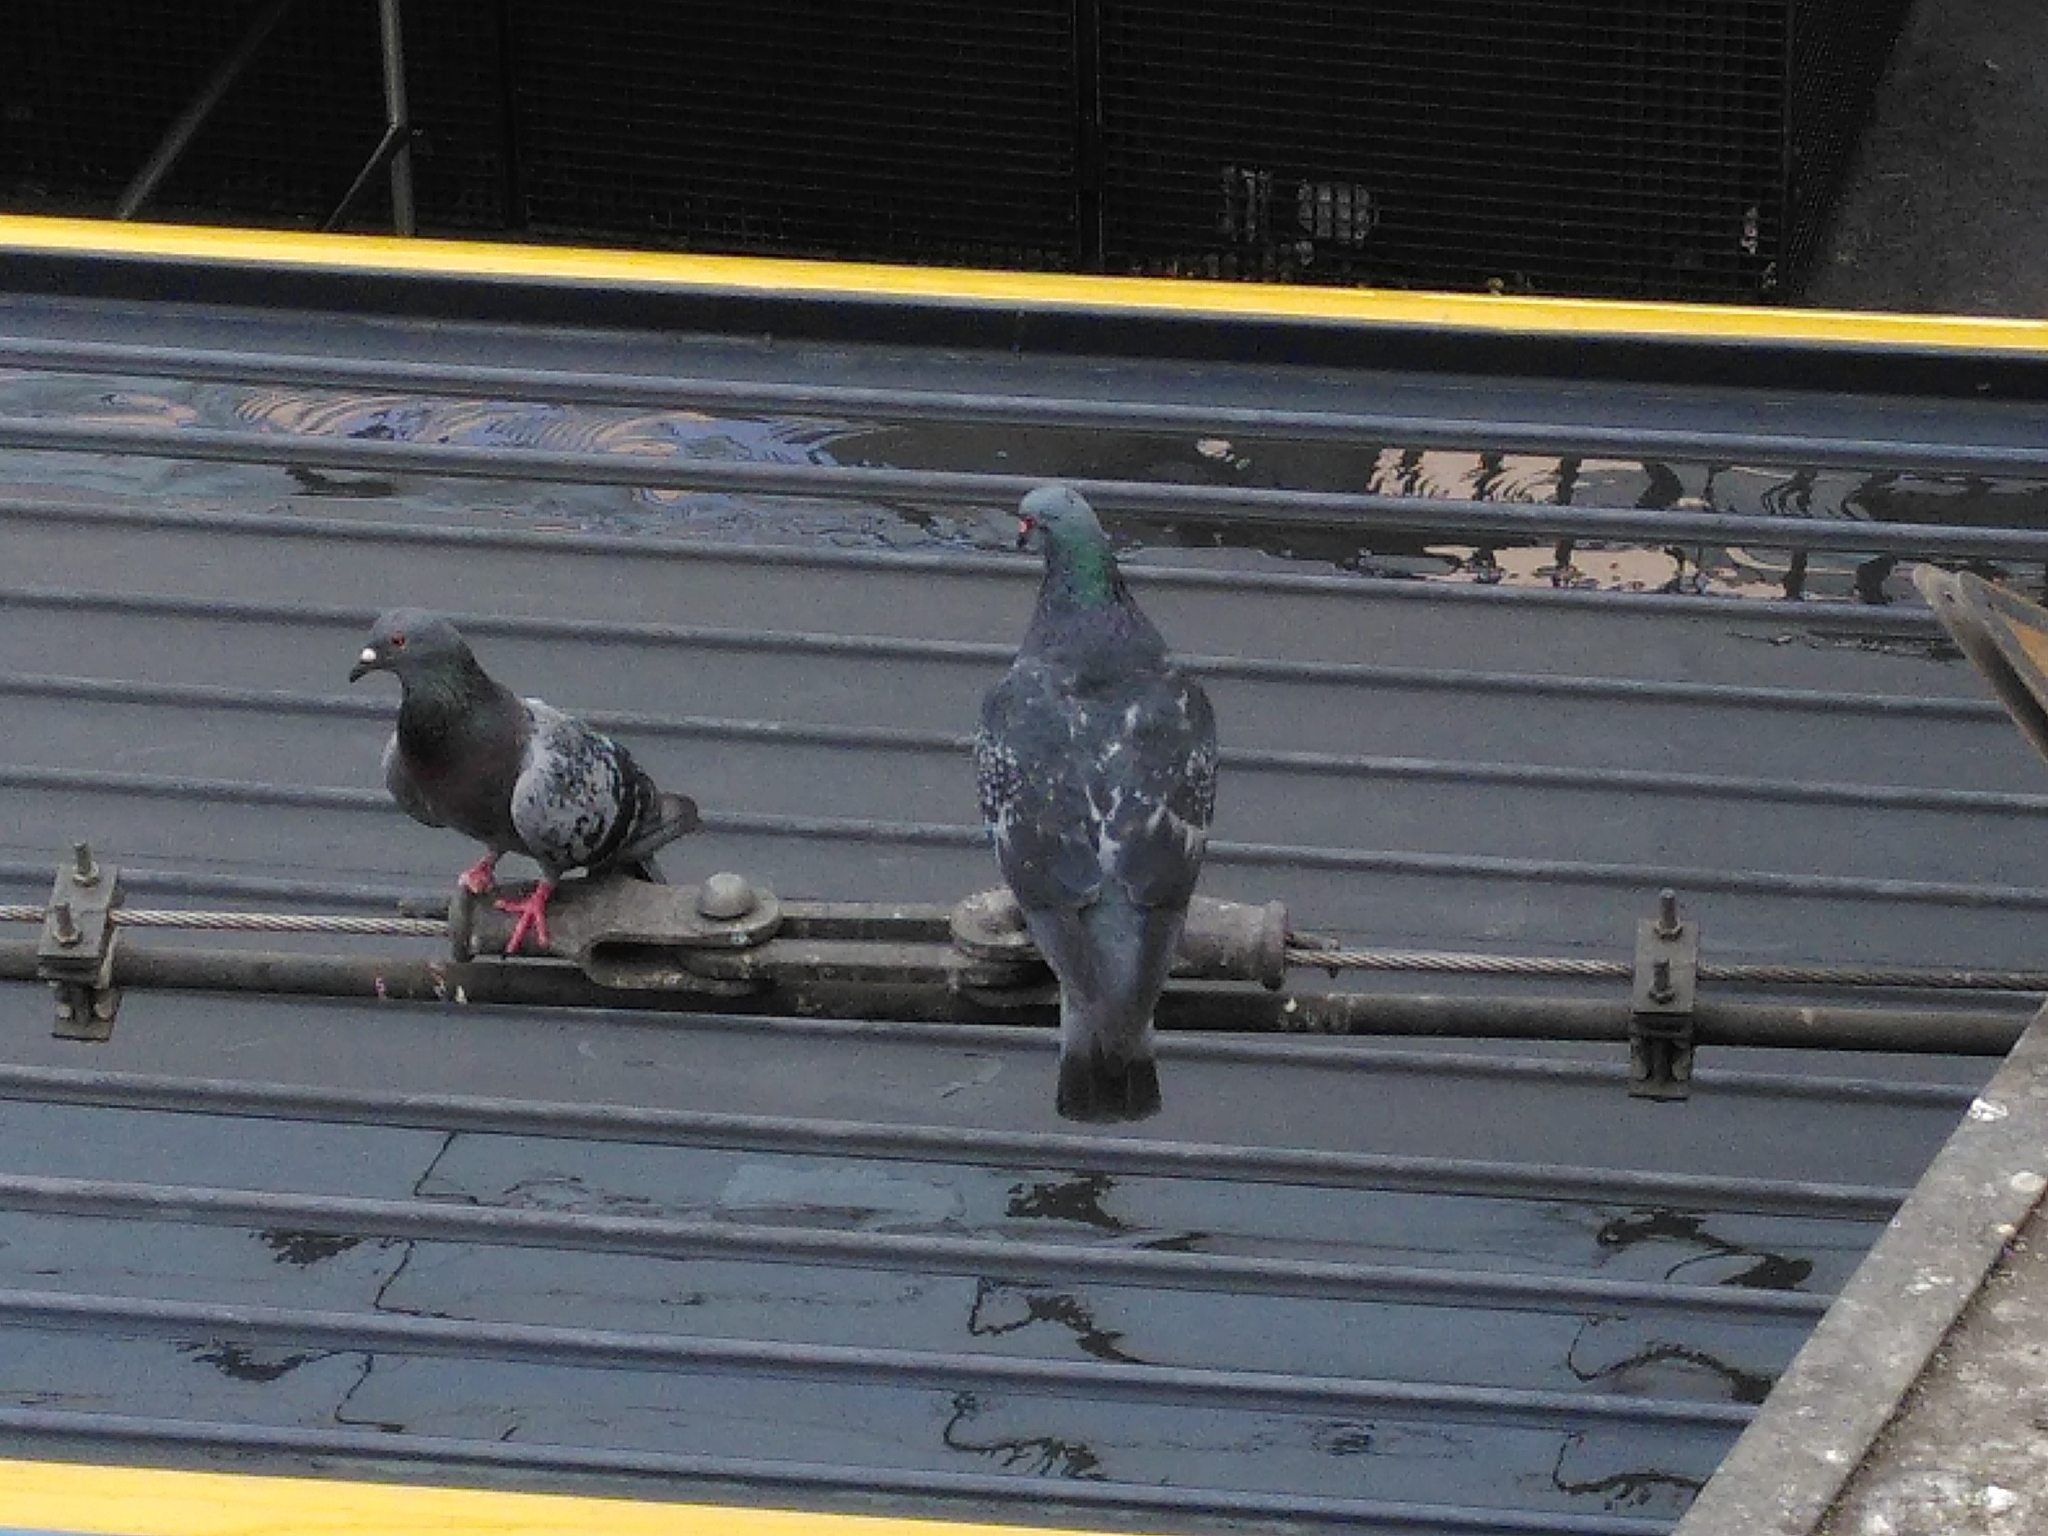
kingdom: Animalia
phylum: Chordata
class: Aves
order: Columbiformes
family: Columbidae
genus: Columba
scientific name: Columba livia
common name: Rock pigeon
